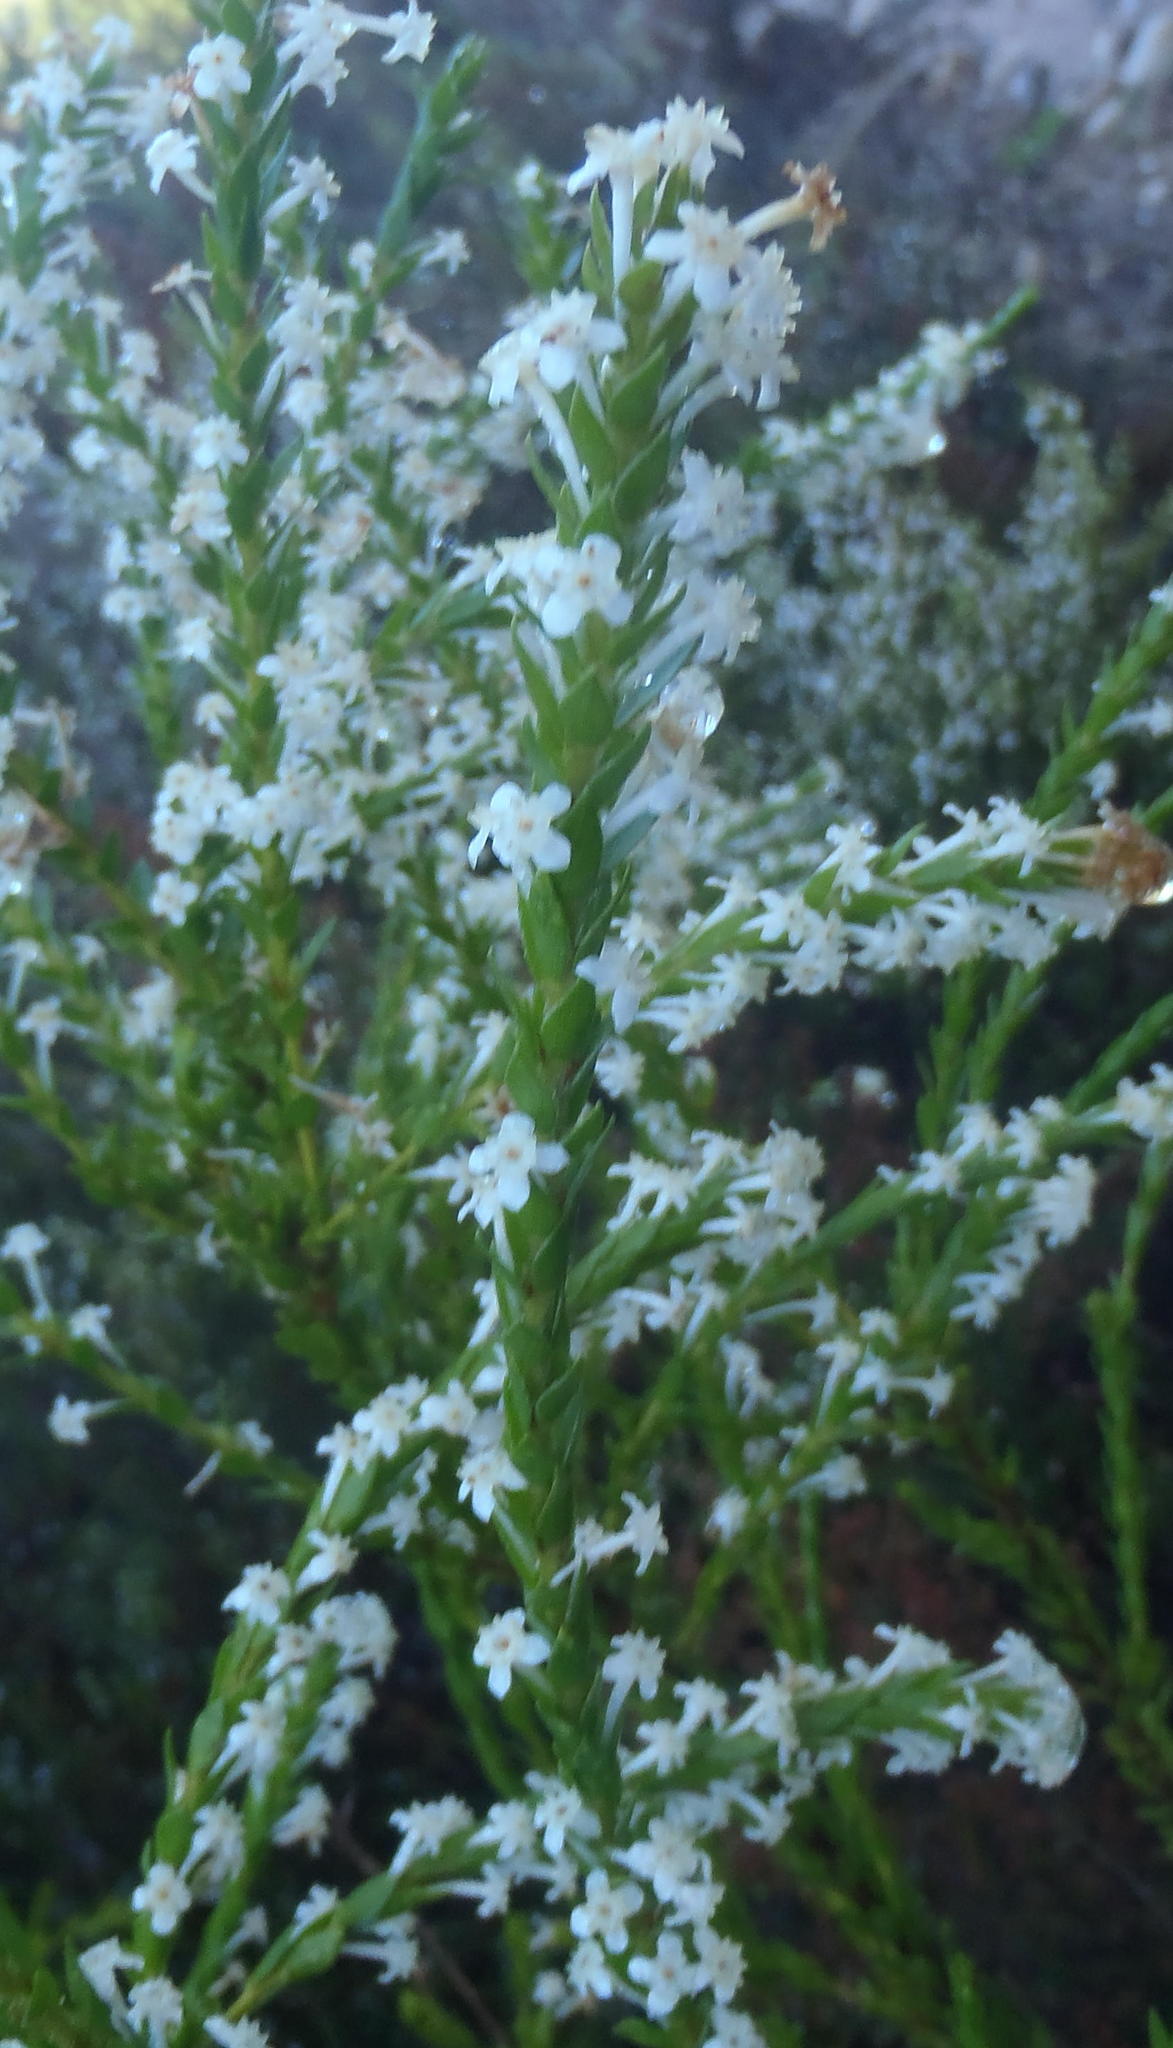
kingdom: Plantae
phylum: Tracheophyta
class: Magnoliopsida
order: Malvales
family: Thymelaeaceae
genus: Struthiola
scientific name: Struthiola hirsuta
